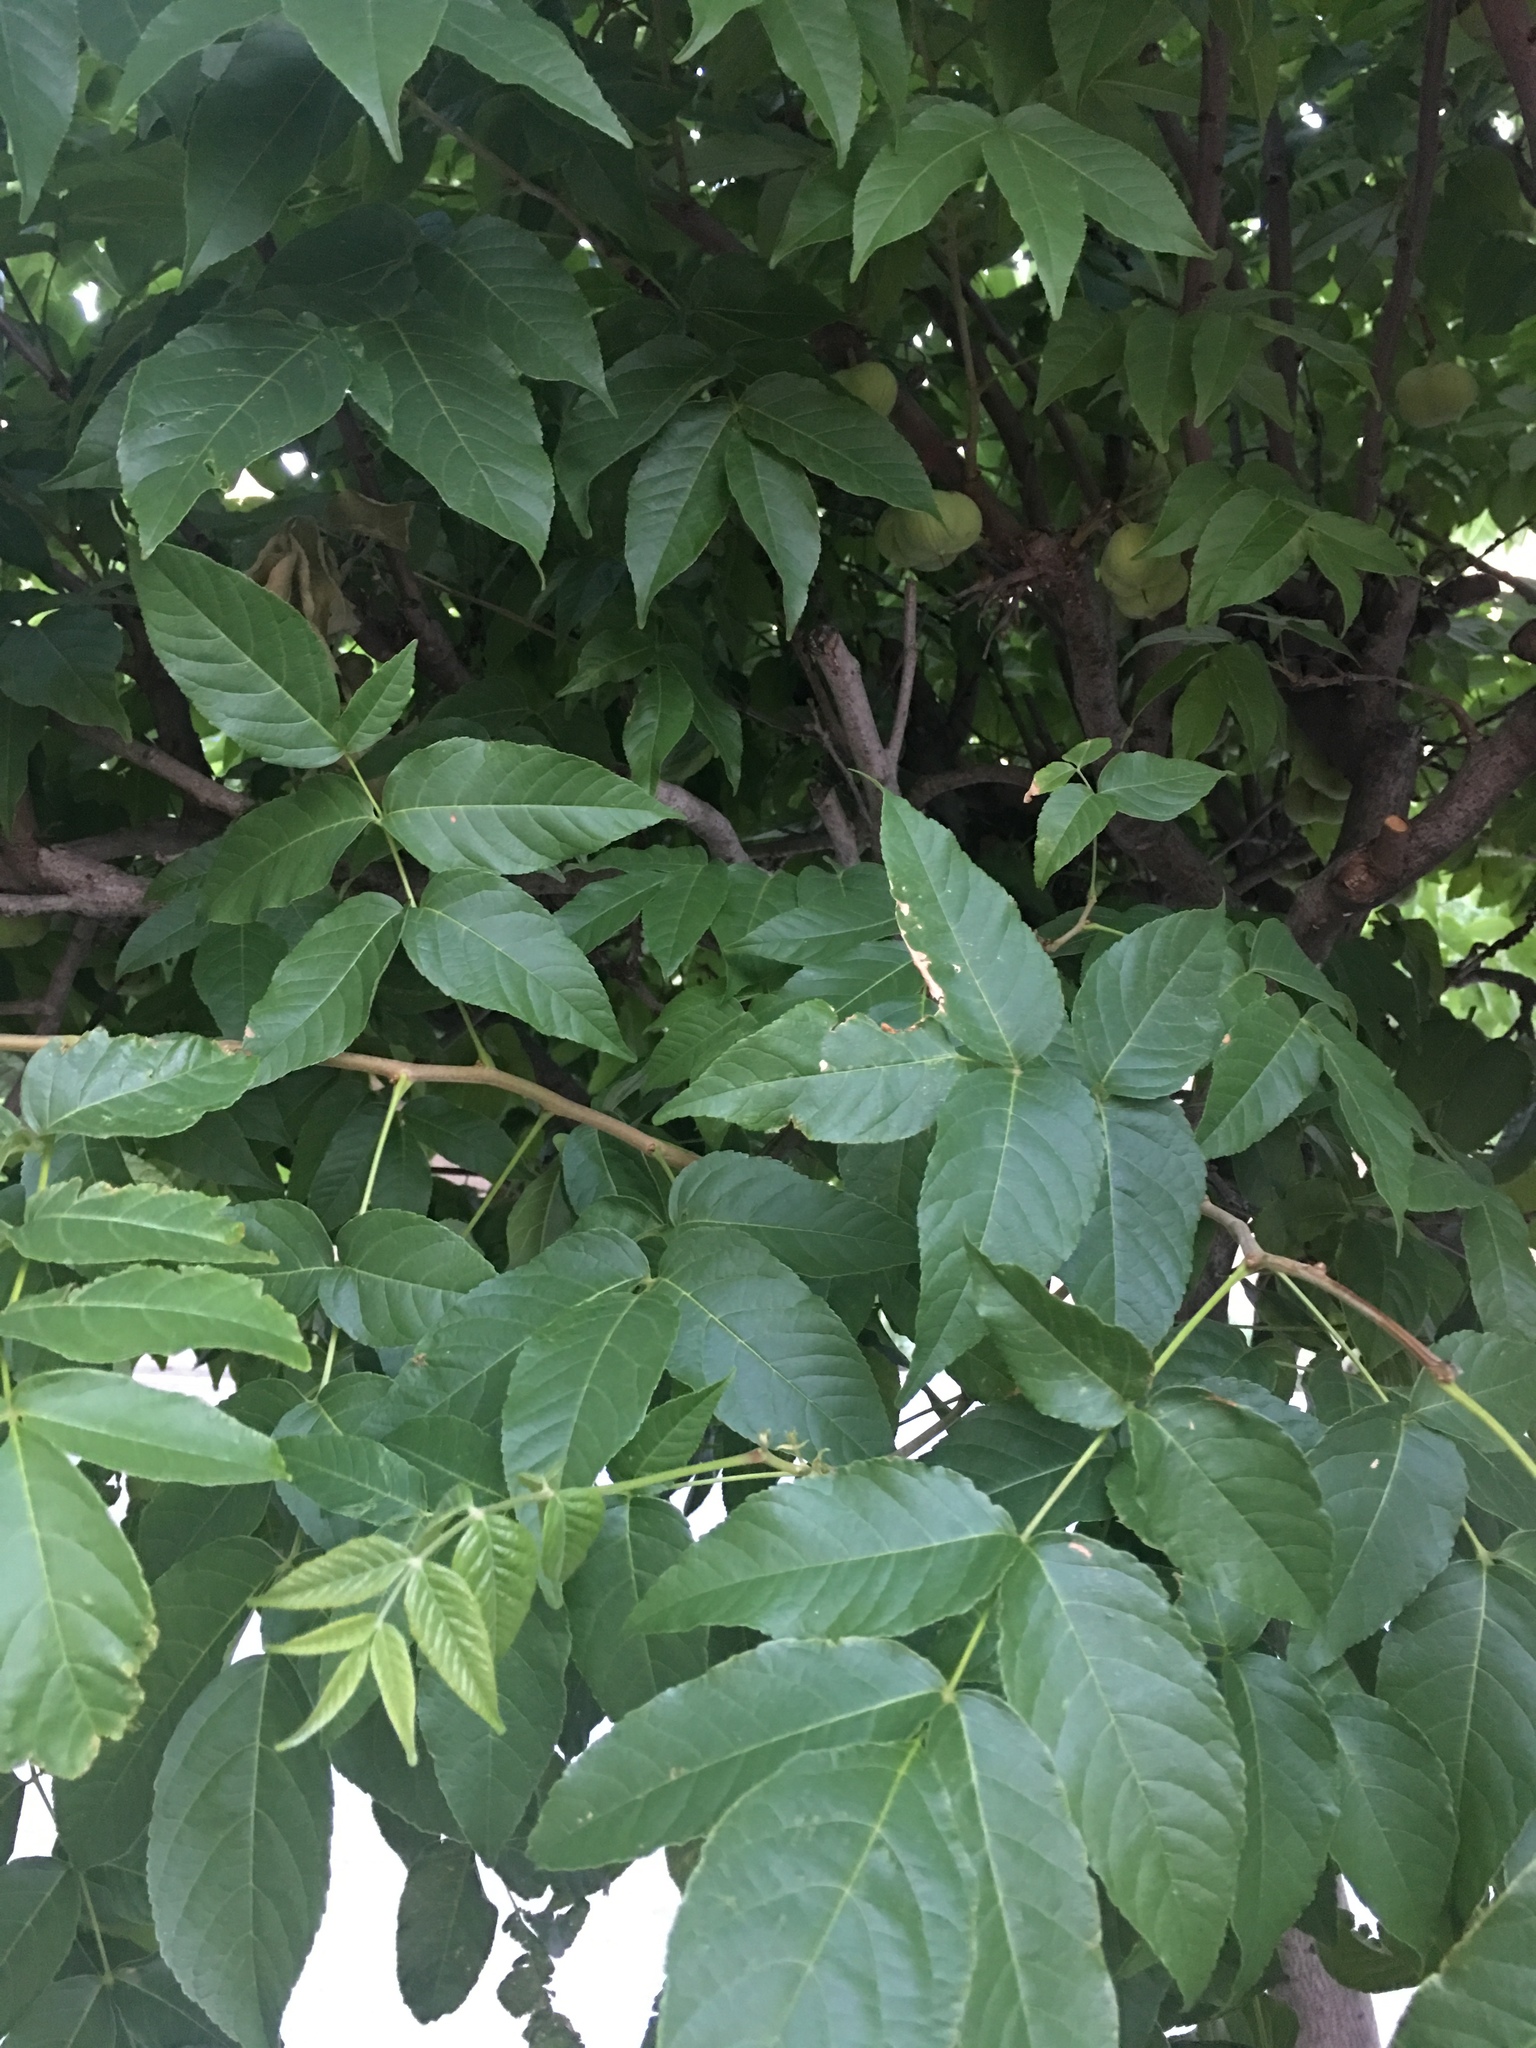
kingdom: Plantae
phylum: Tracheophyta
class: Magnoliopsida
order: Sapindales
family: Sapindaceae
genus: Ungnadia
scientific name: Ungnadia speciosa
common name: Texas-buckeye
